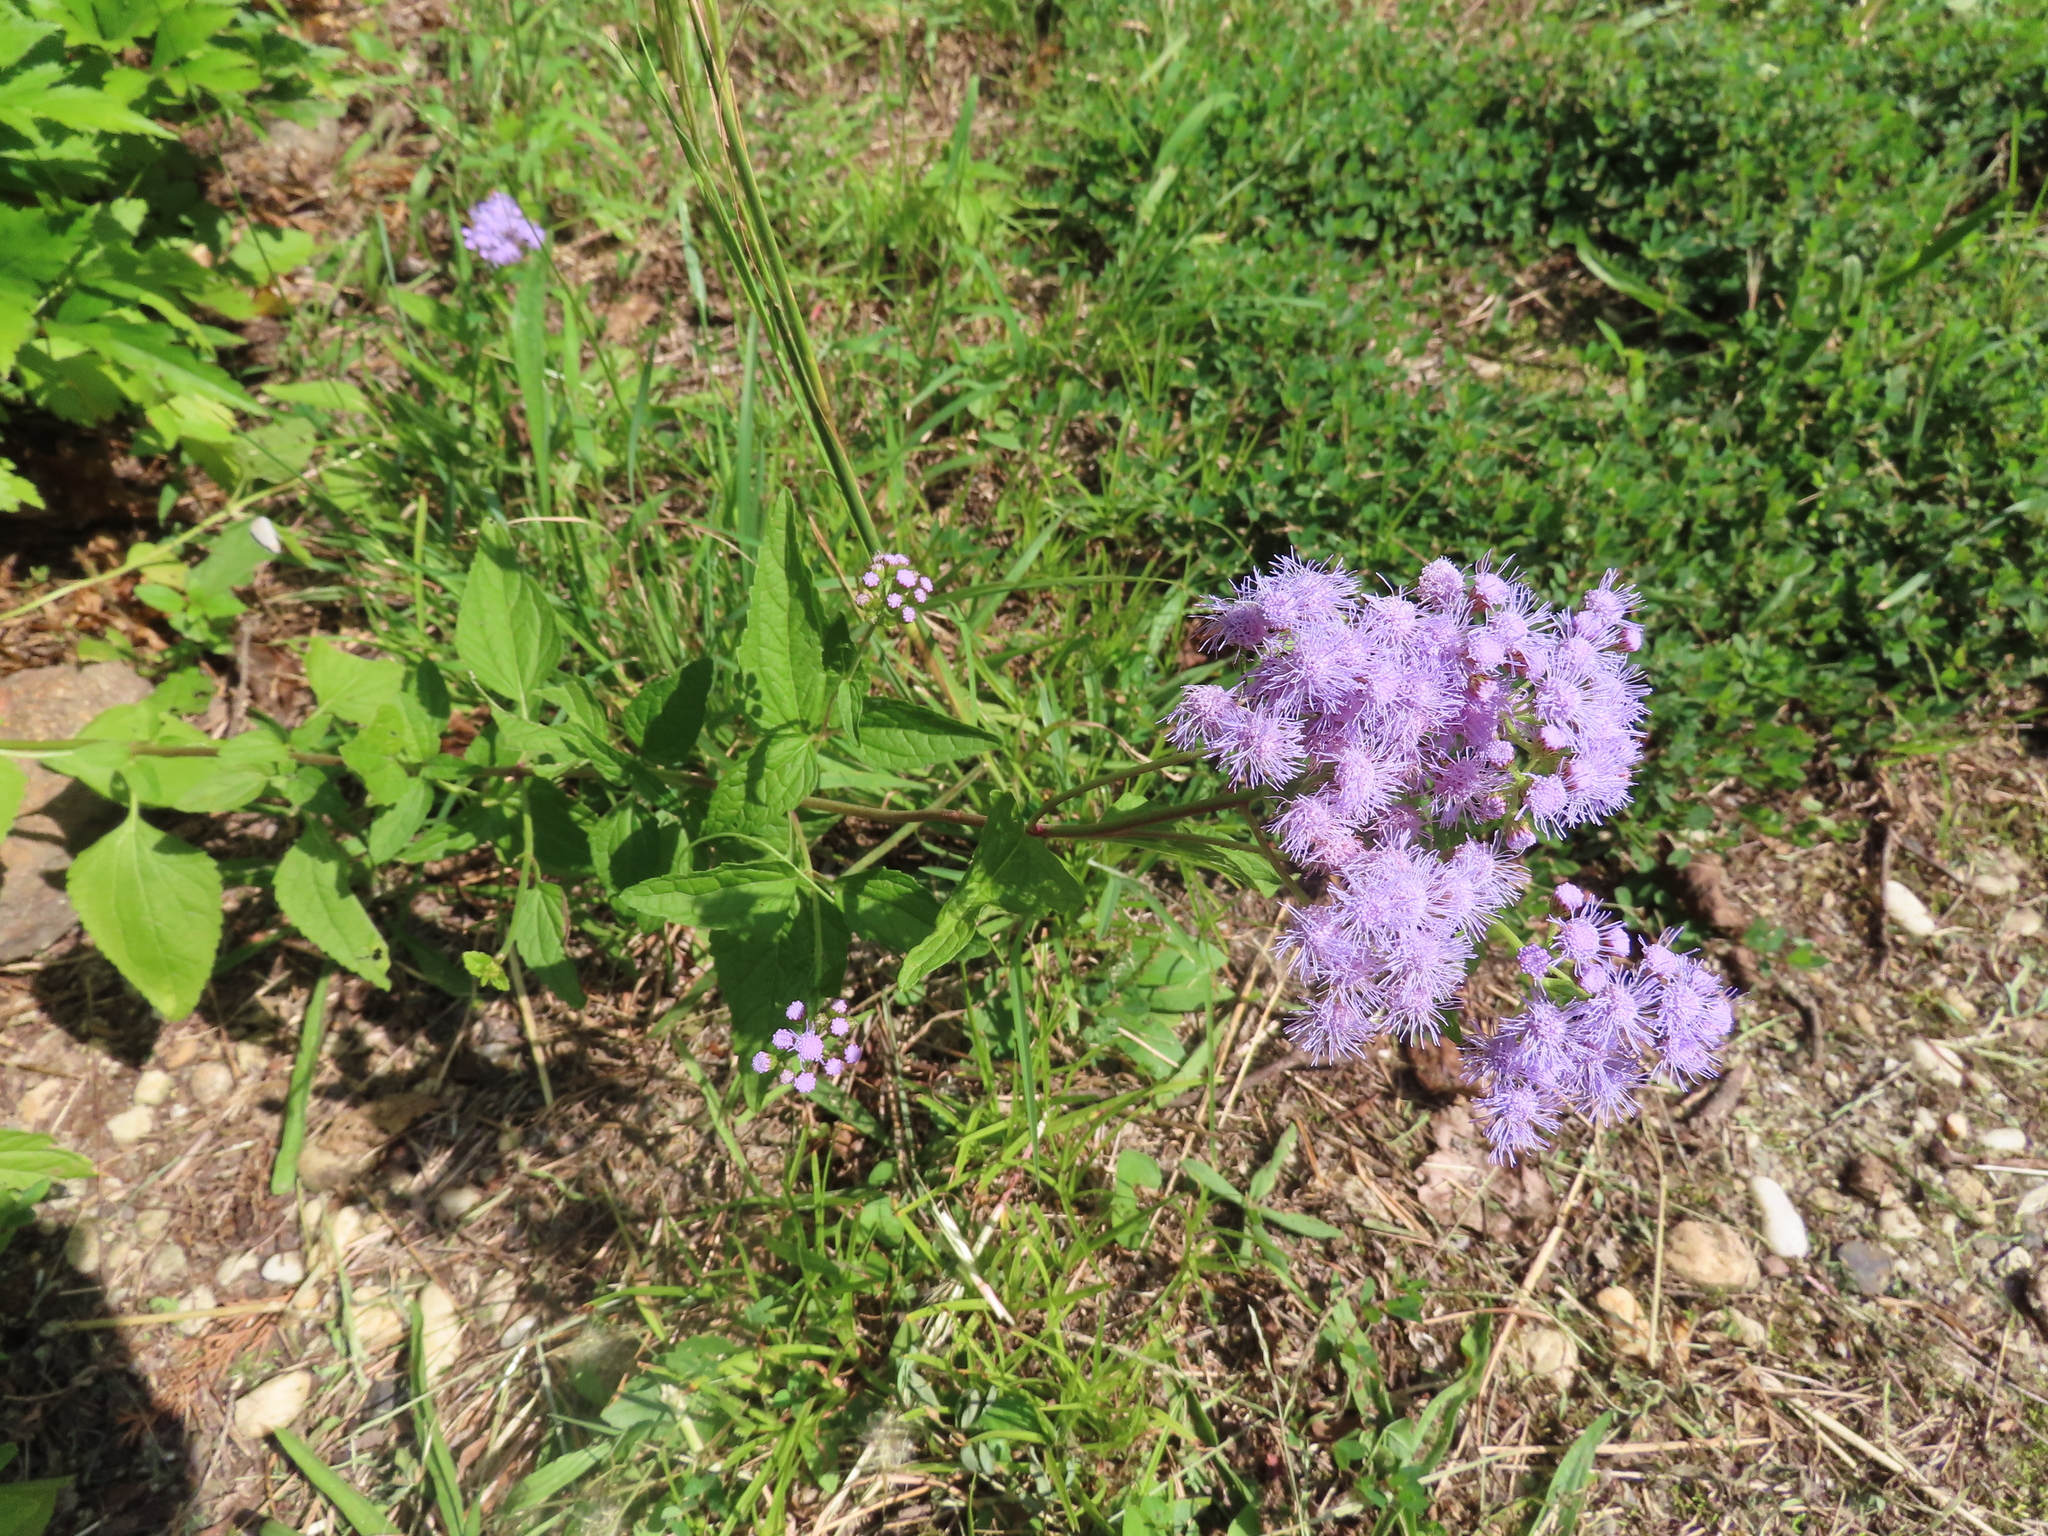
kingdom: Plantae
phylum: Tracheophyta
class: Magnoliopsida
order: Asterales
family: Asteraceae
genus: Conoclinium
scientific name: Conoclinium coelestinum
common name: Blue mistflower
